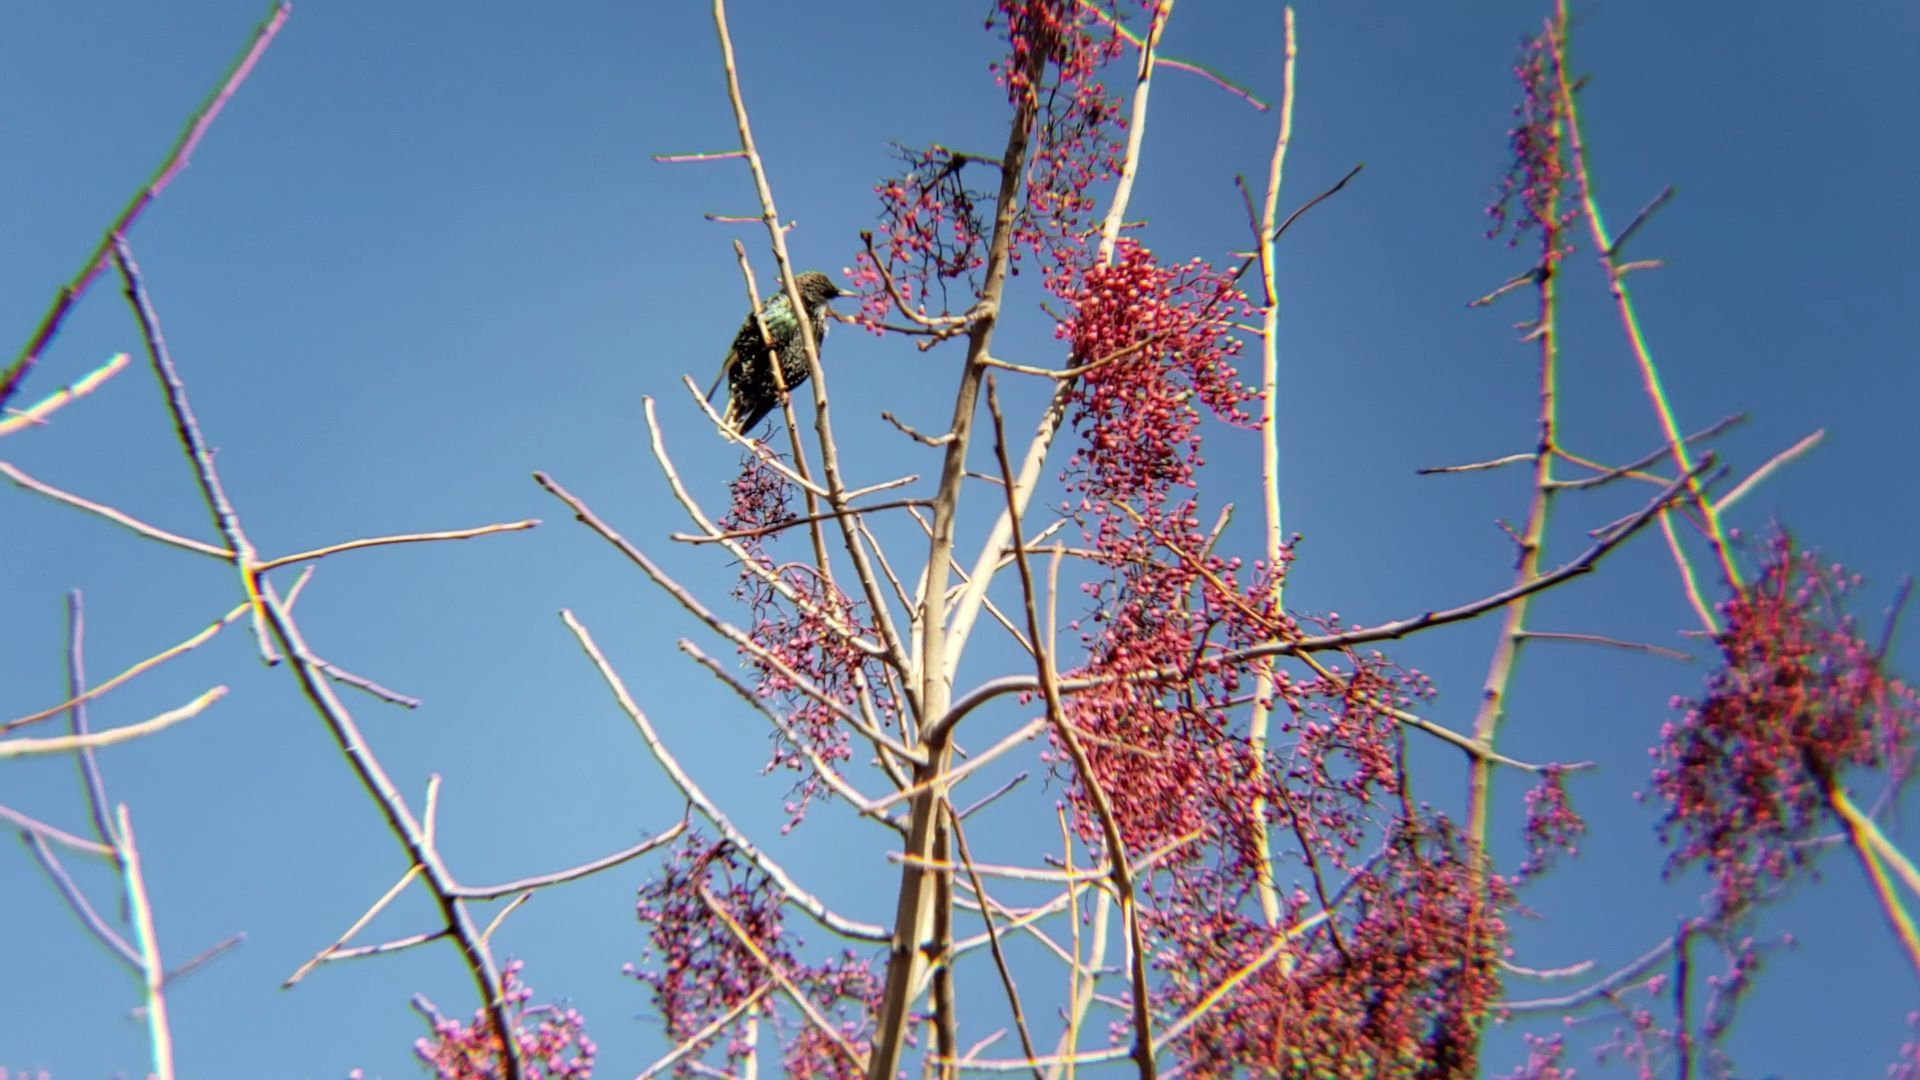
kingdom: Animalia
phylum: Chordata
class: Aves
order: Passeriformes
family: Sturnidae
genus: Sturnus
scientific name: Sturnus vulgaris
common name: Common starling
